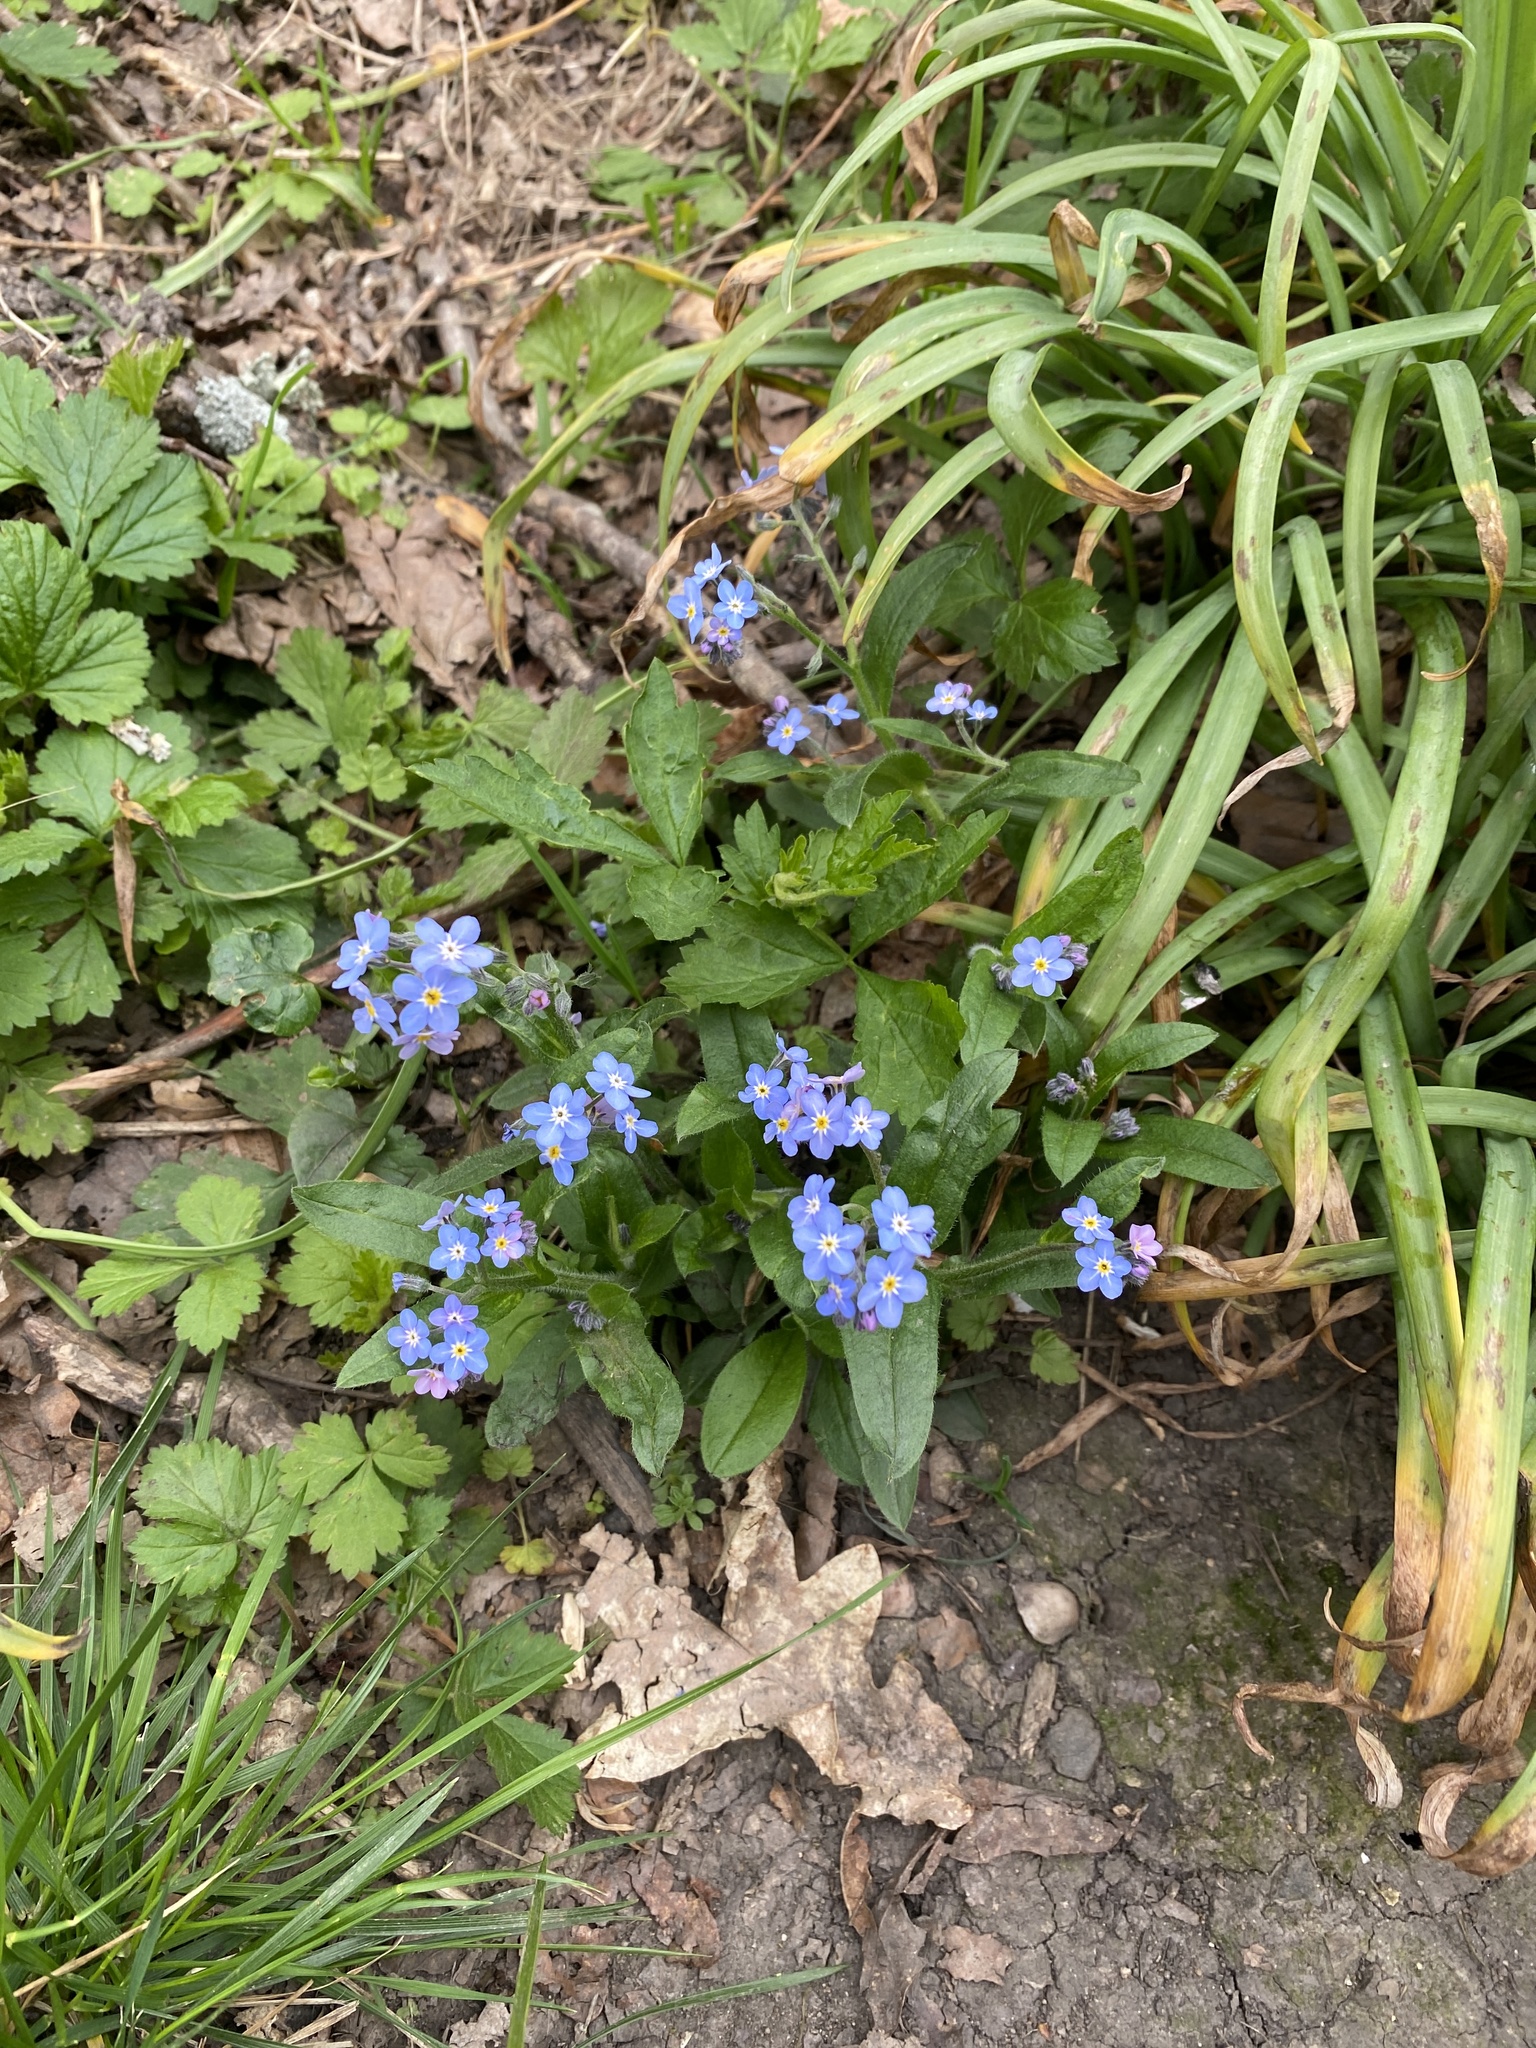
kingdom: Plantae
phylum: Tracheophyta
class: Magnoliopsida
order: Boraginales
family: Boraginaceae
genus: Myosotis
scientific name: Myosotis sylvatica
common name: Wood forget-me-not
